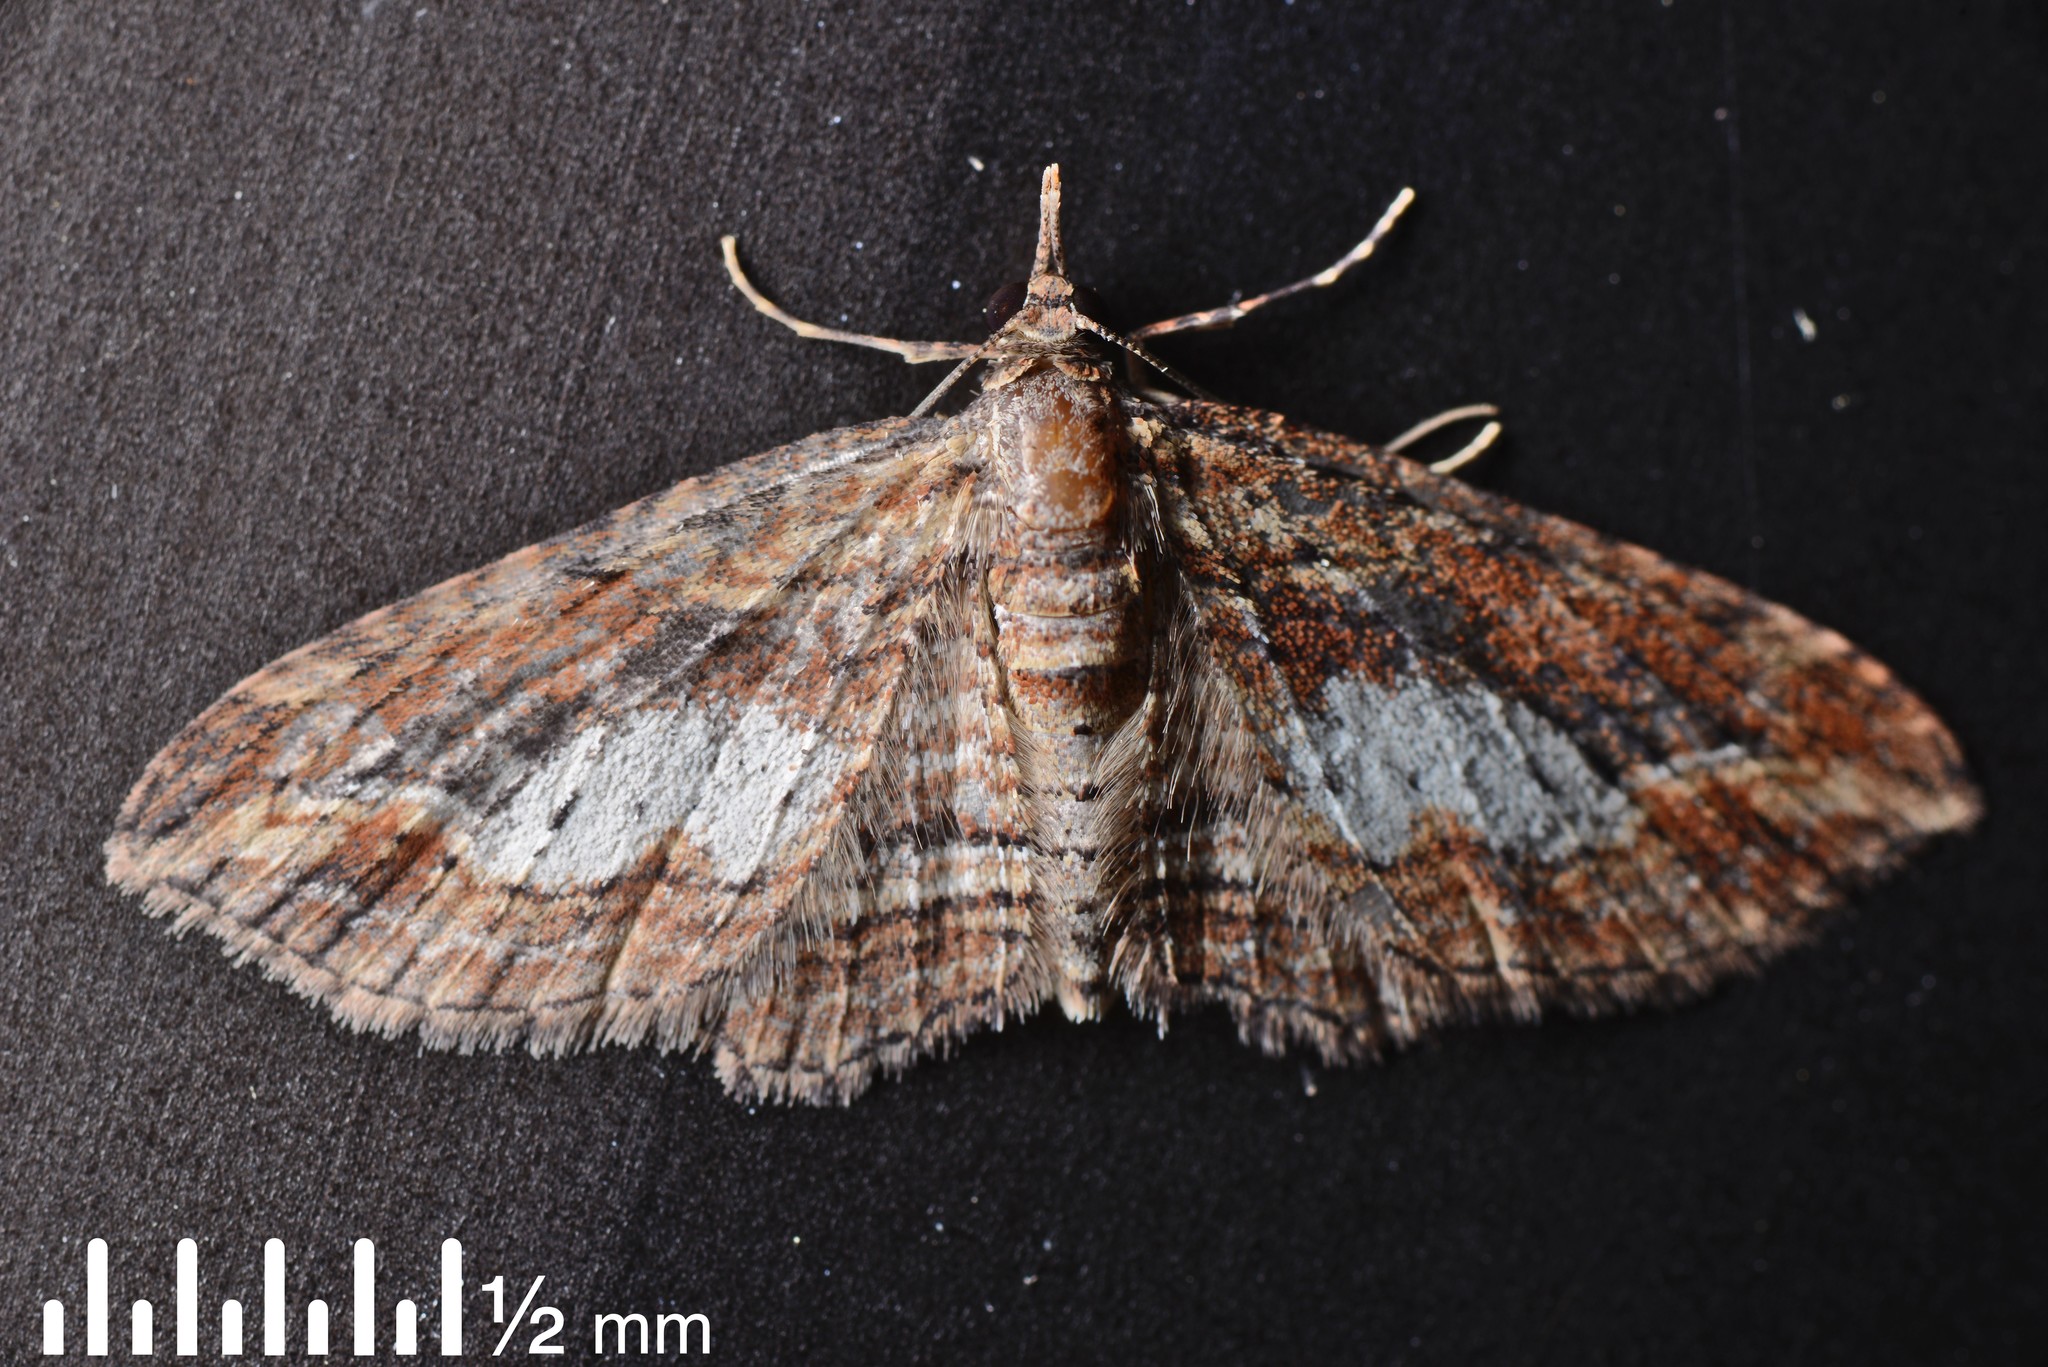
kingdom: Animalia
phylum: Arthropoda
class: Insecta
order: Lepidoptera
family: Geometridae
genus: Chloroclystis
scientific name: Chloroclystis filata
